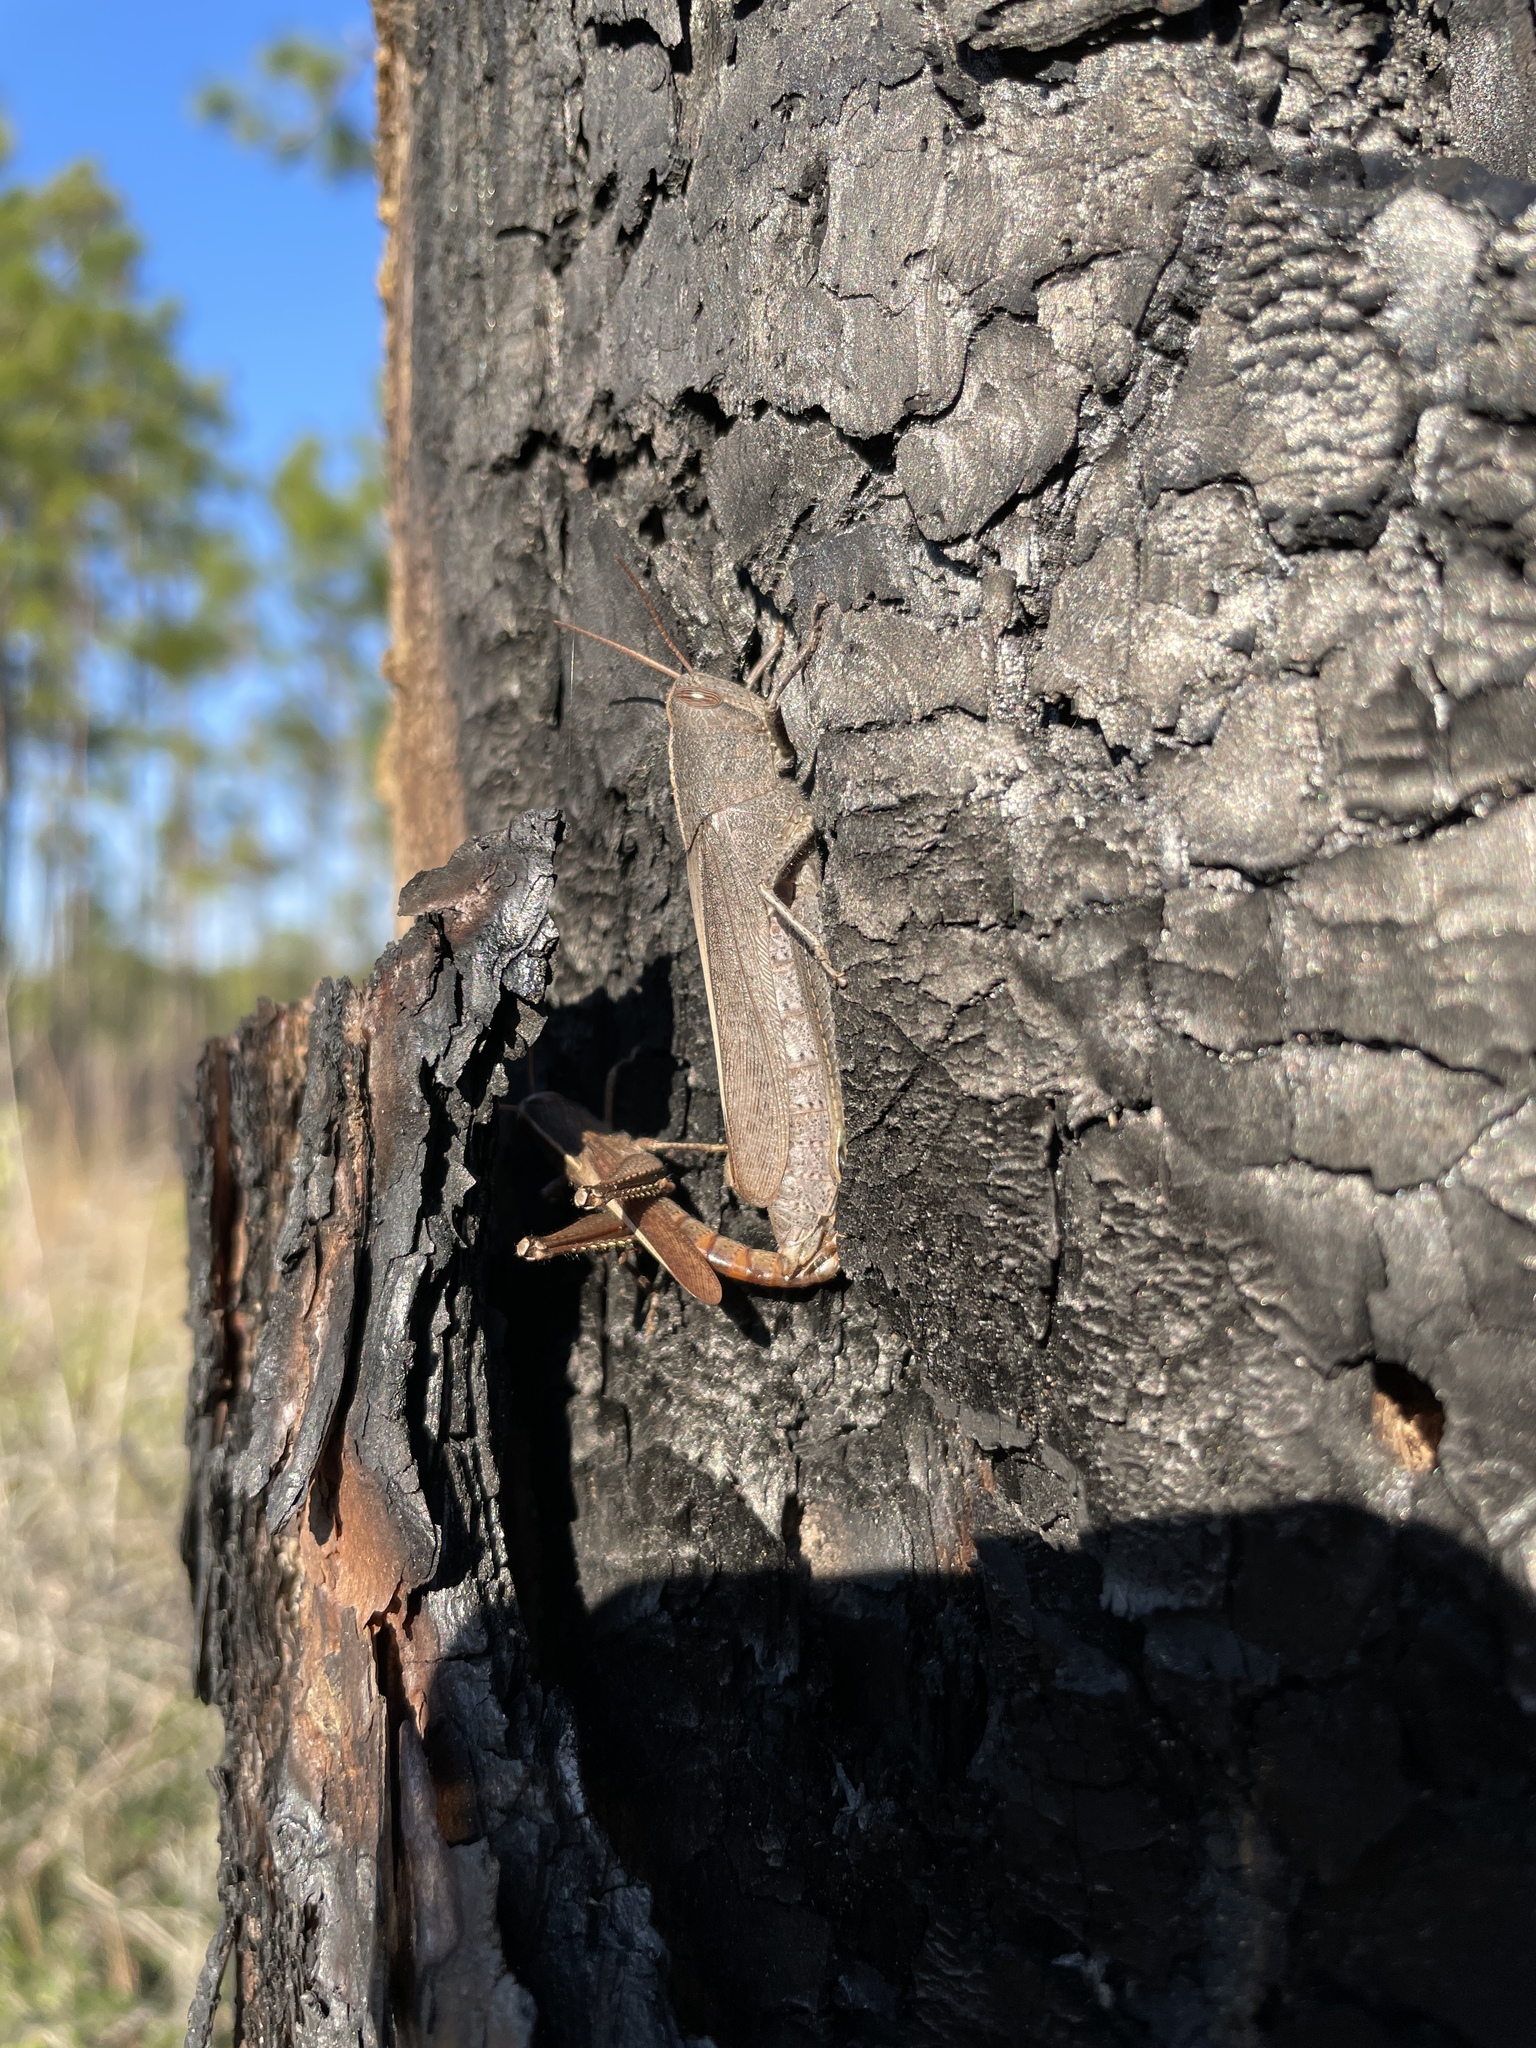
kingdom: Animalia
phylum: Arthropoda
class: Insecta
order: Orthoptera
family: Acrididae
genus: Schistocerca
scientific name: Schistocerca damnifica
